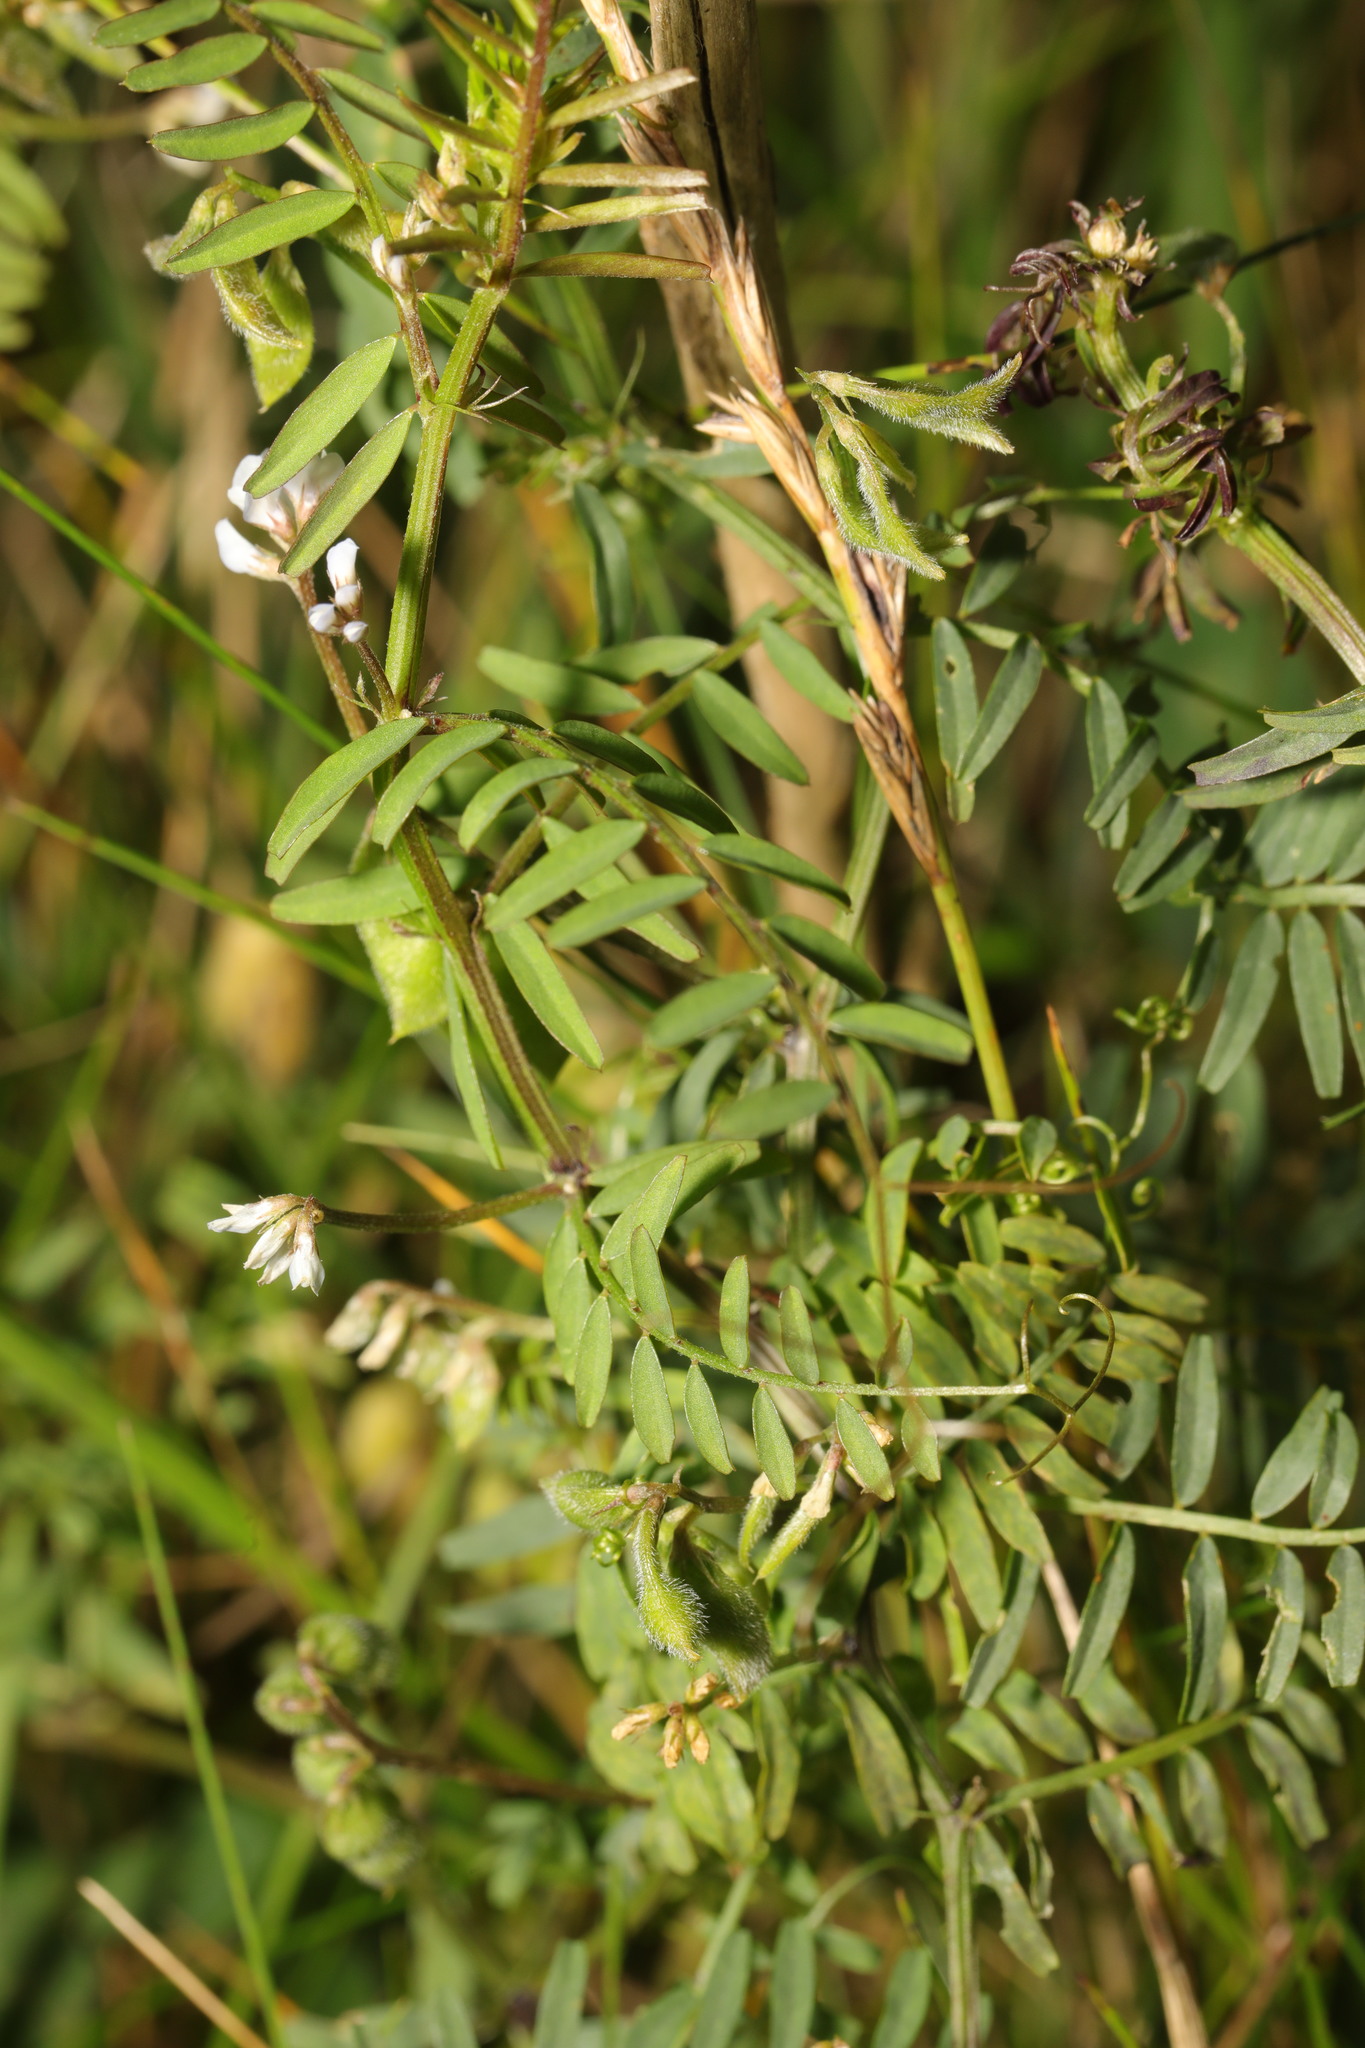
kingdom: Plantae
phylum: Tracheophyta
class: Magnoliopsida
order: Fabales
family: Fabaceae
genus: Vicia
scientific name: Vicia hirsuta
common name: Tiny vetch
